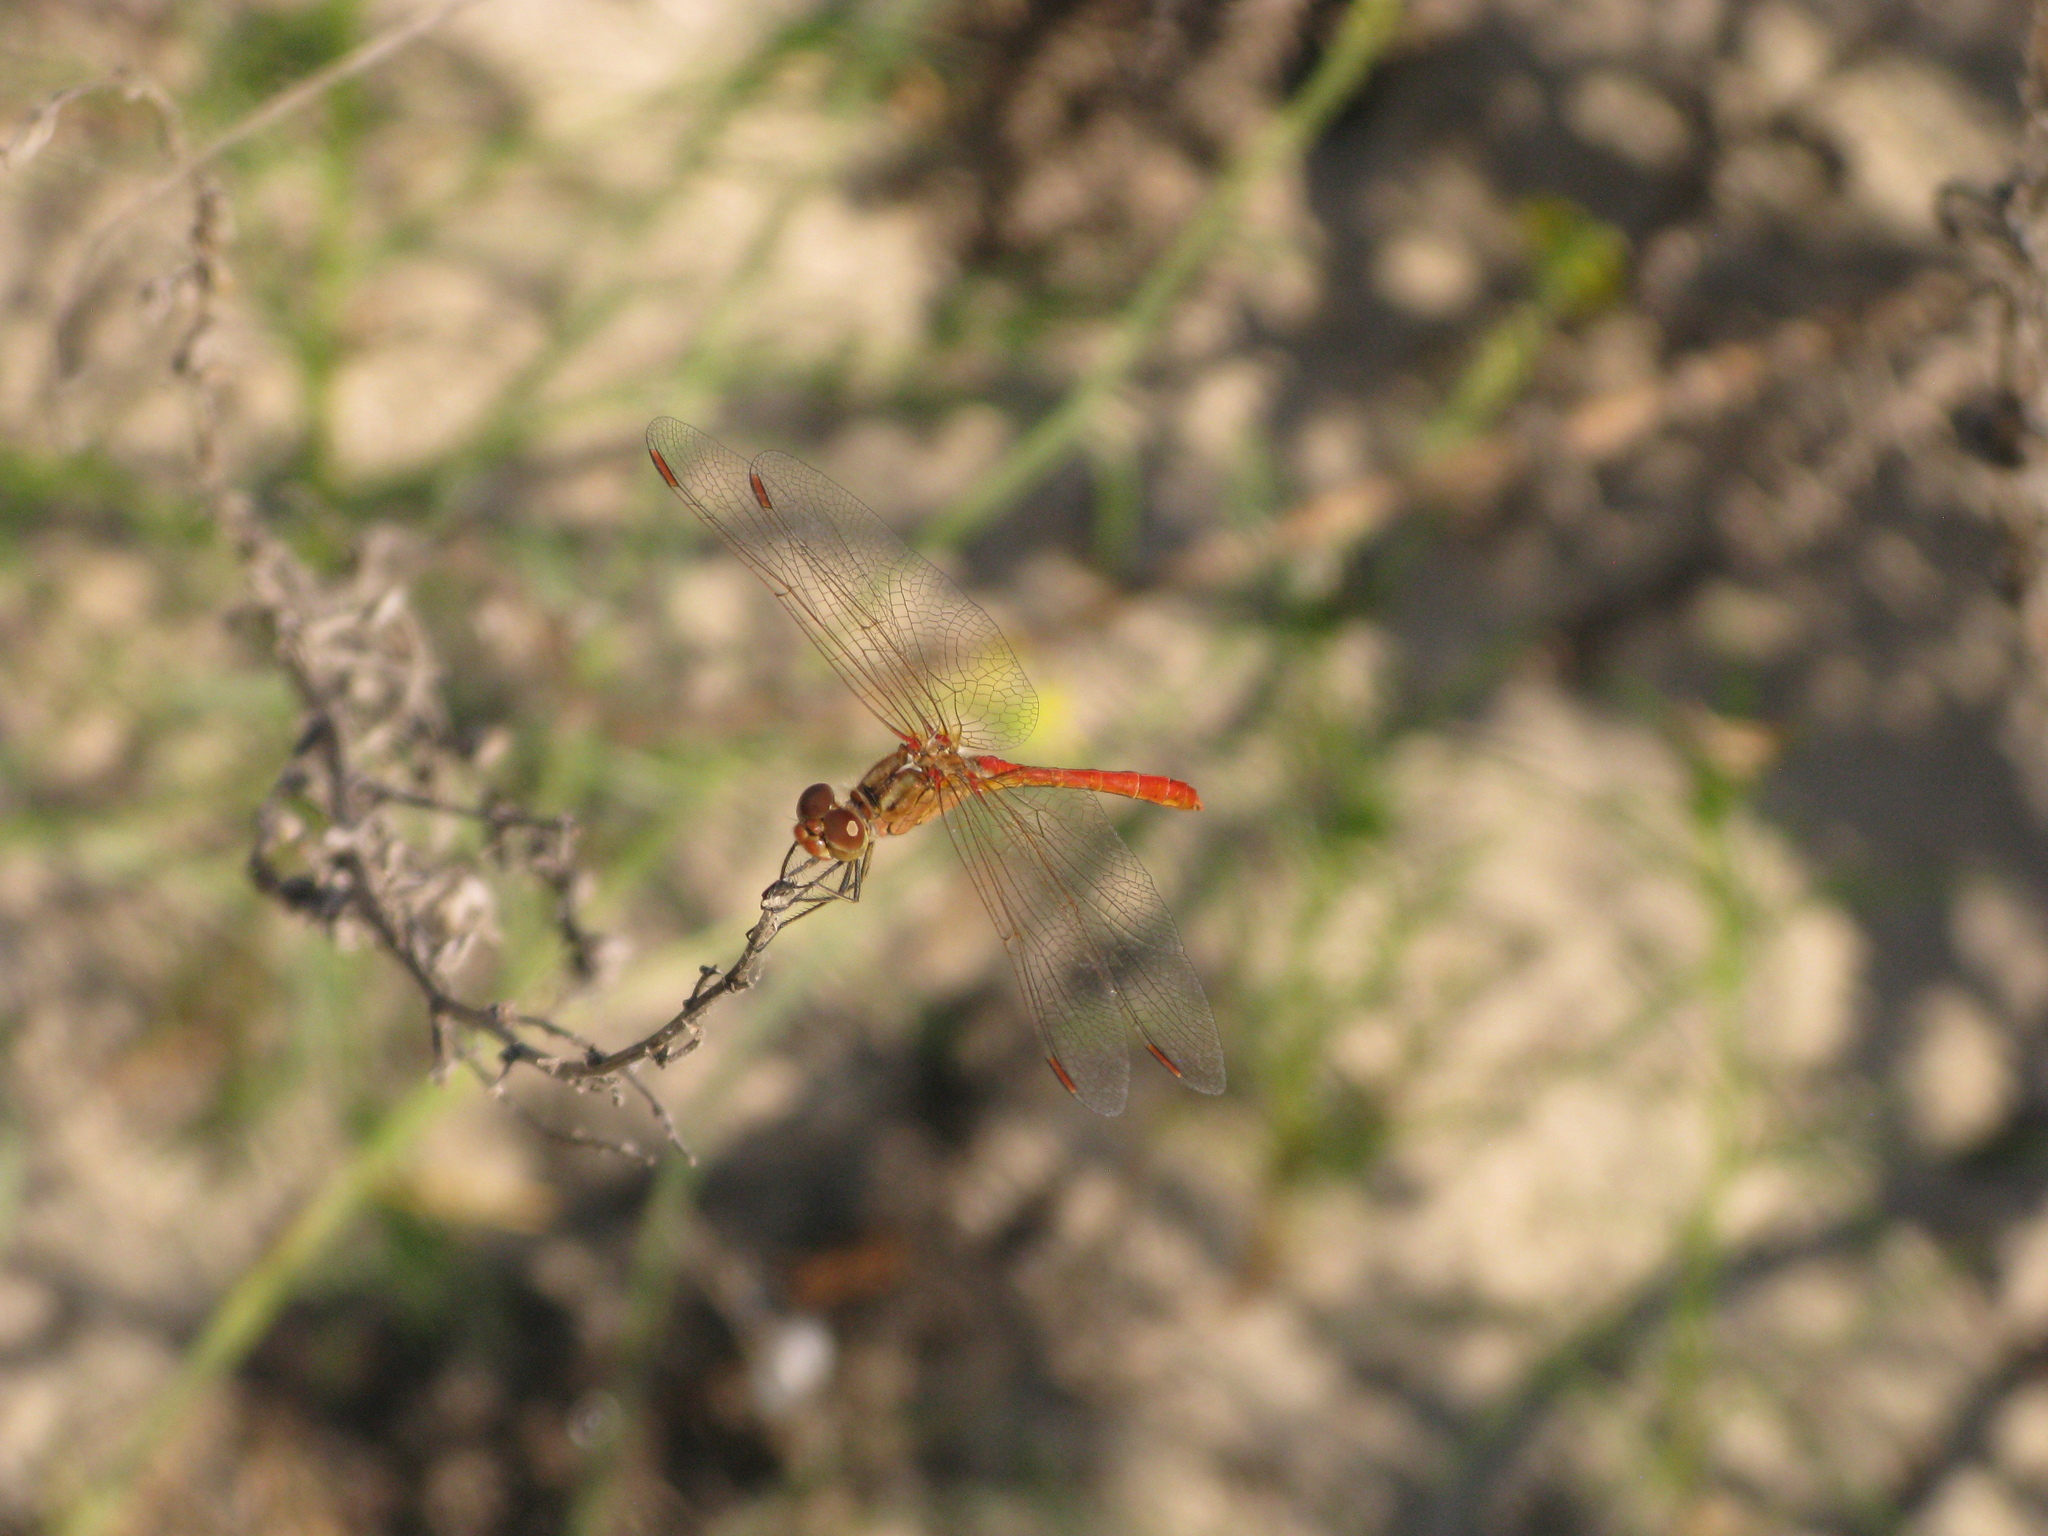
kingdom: Animalia
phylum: Arthropoda
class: Insecta
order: Odonata
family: Libellulidae
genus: Sympetrum
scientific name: Sympetrum meridionale
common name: Southern darter
